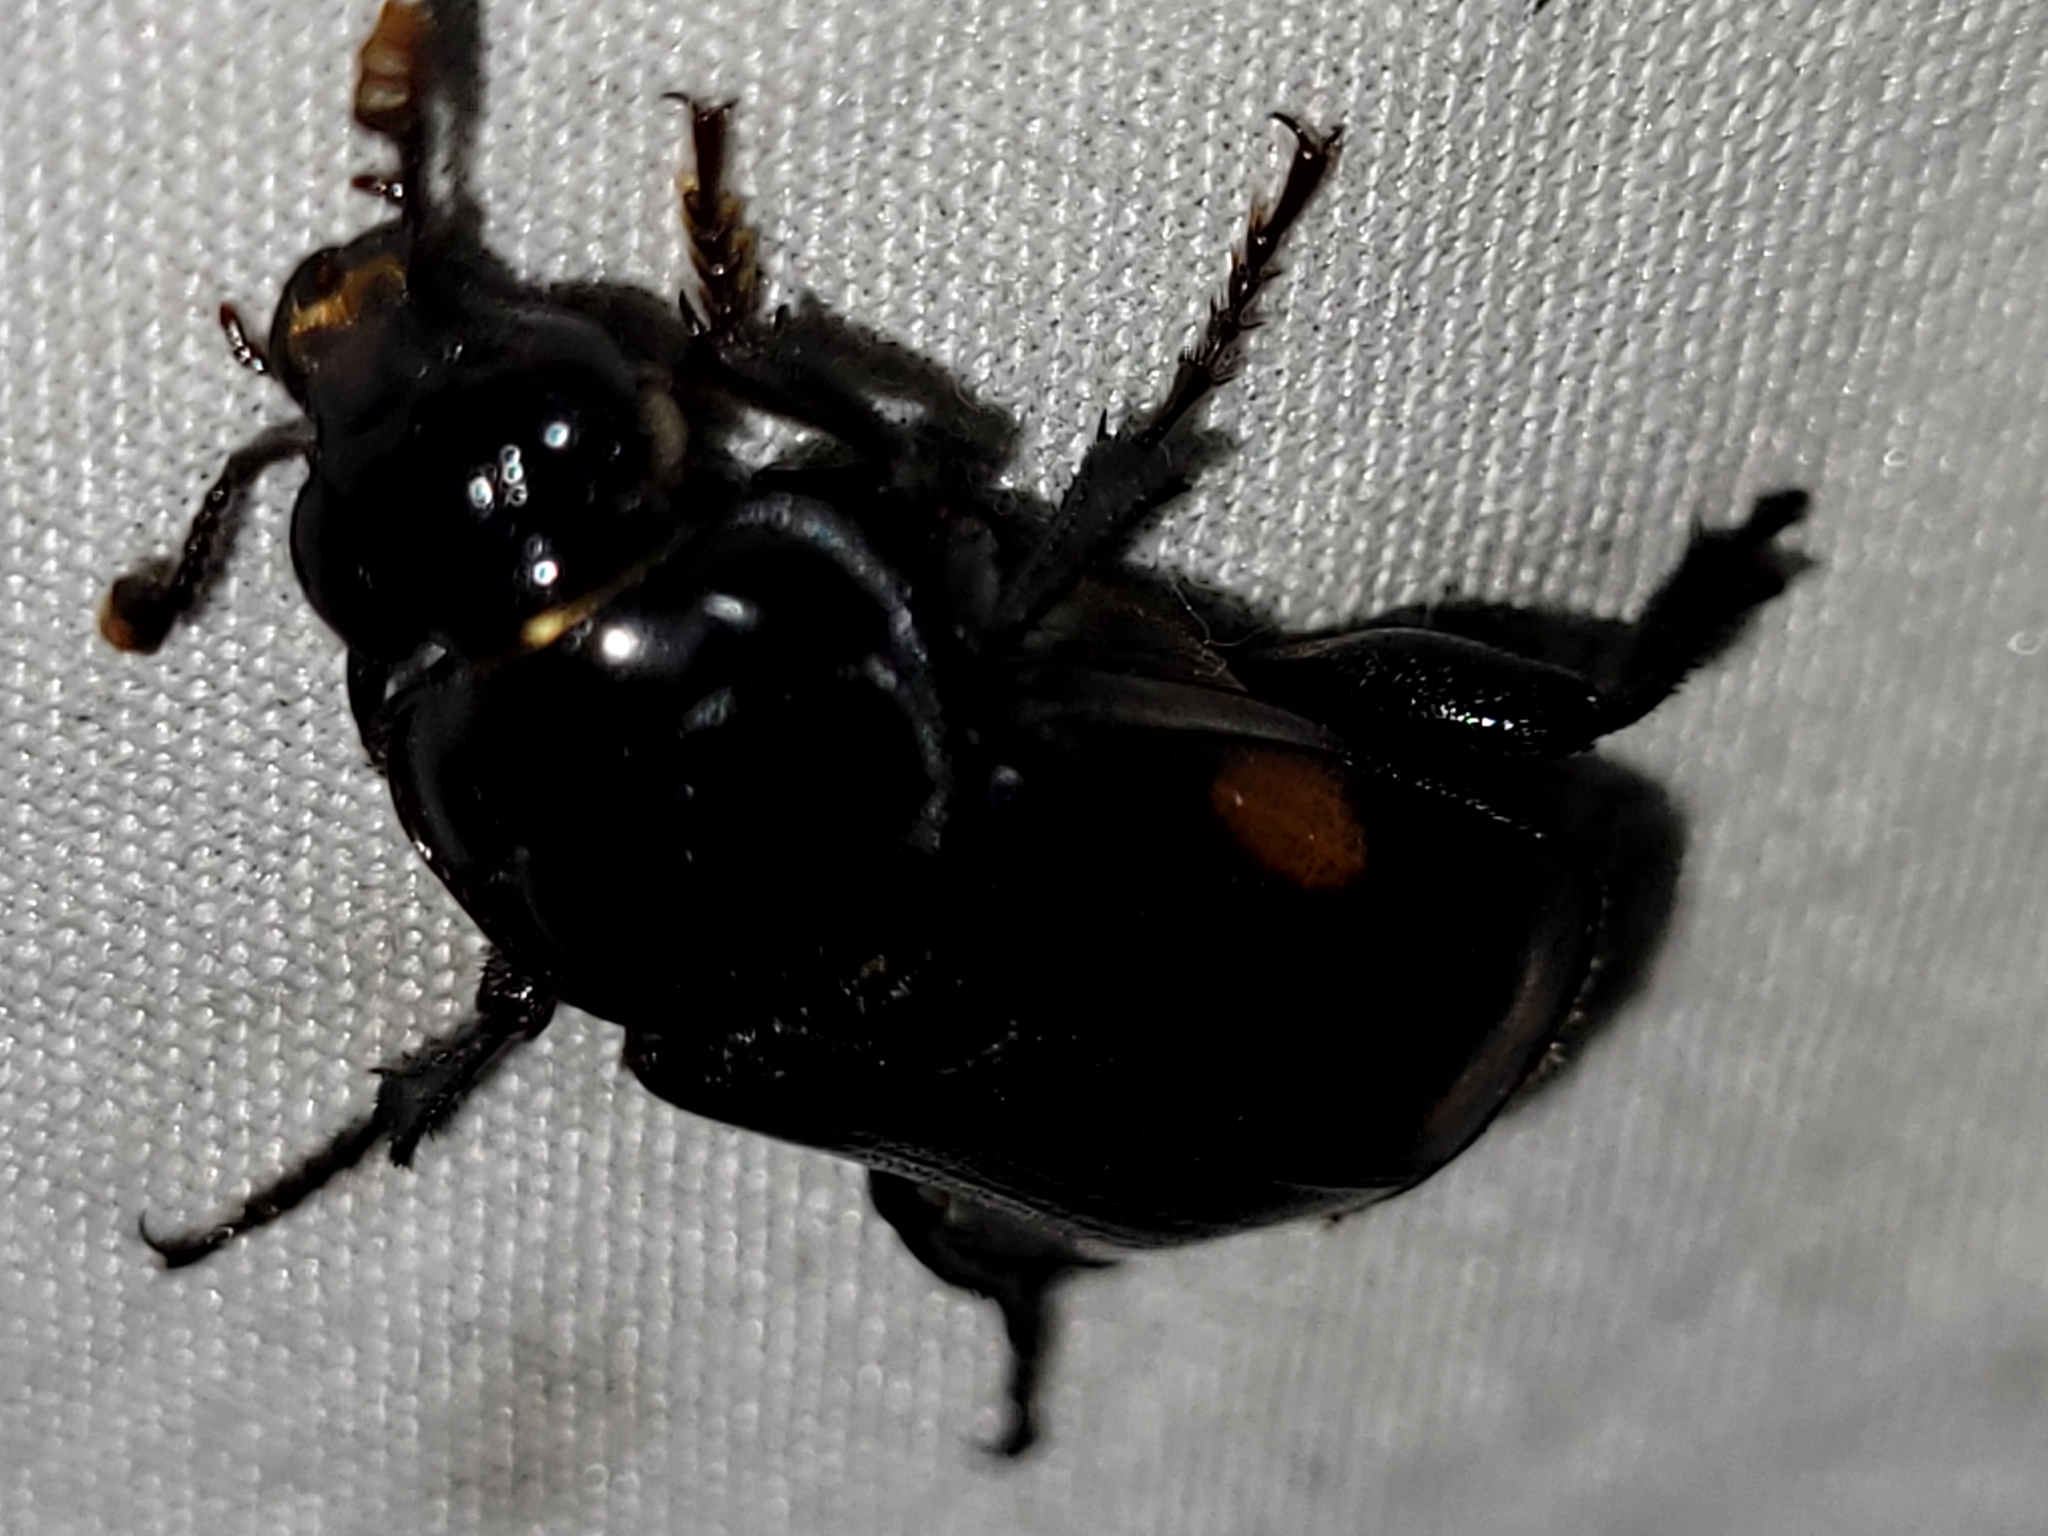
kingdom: Animalia
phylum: Arthropoda
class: Insecta
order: Coleoptera
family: Staphylinidae
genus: Nicrophorus
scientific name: Nicrophorus pustulatus
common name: Pustulated carrion beetle
